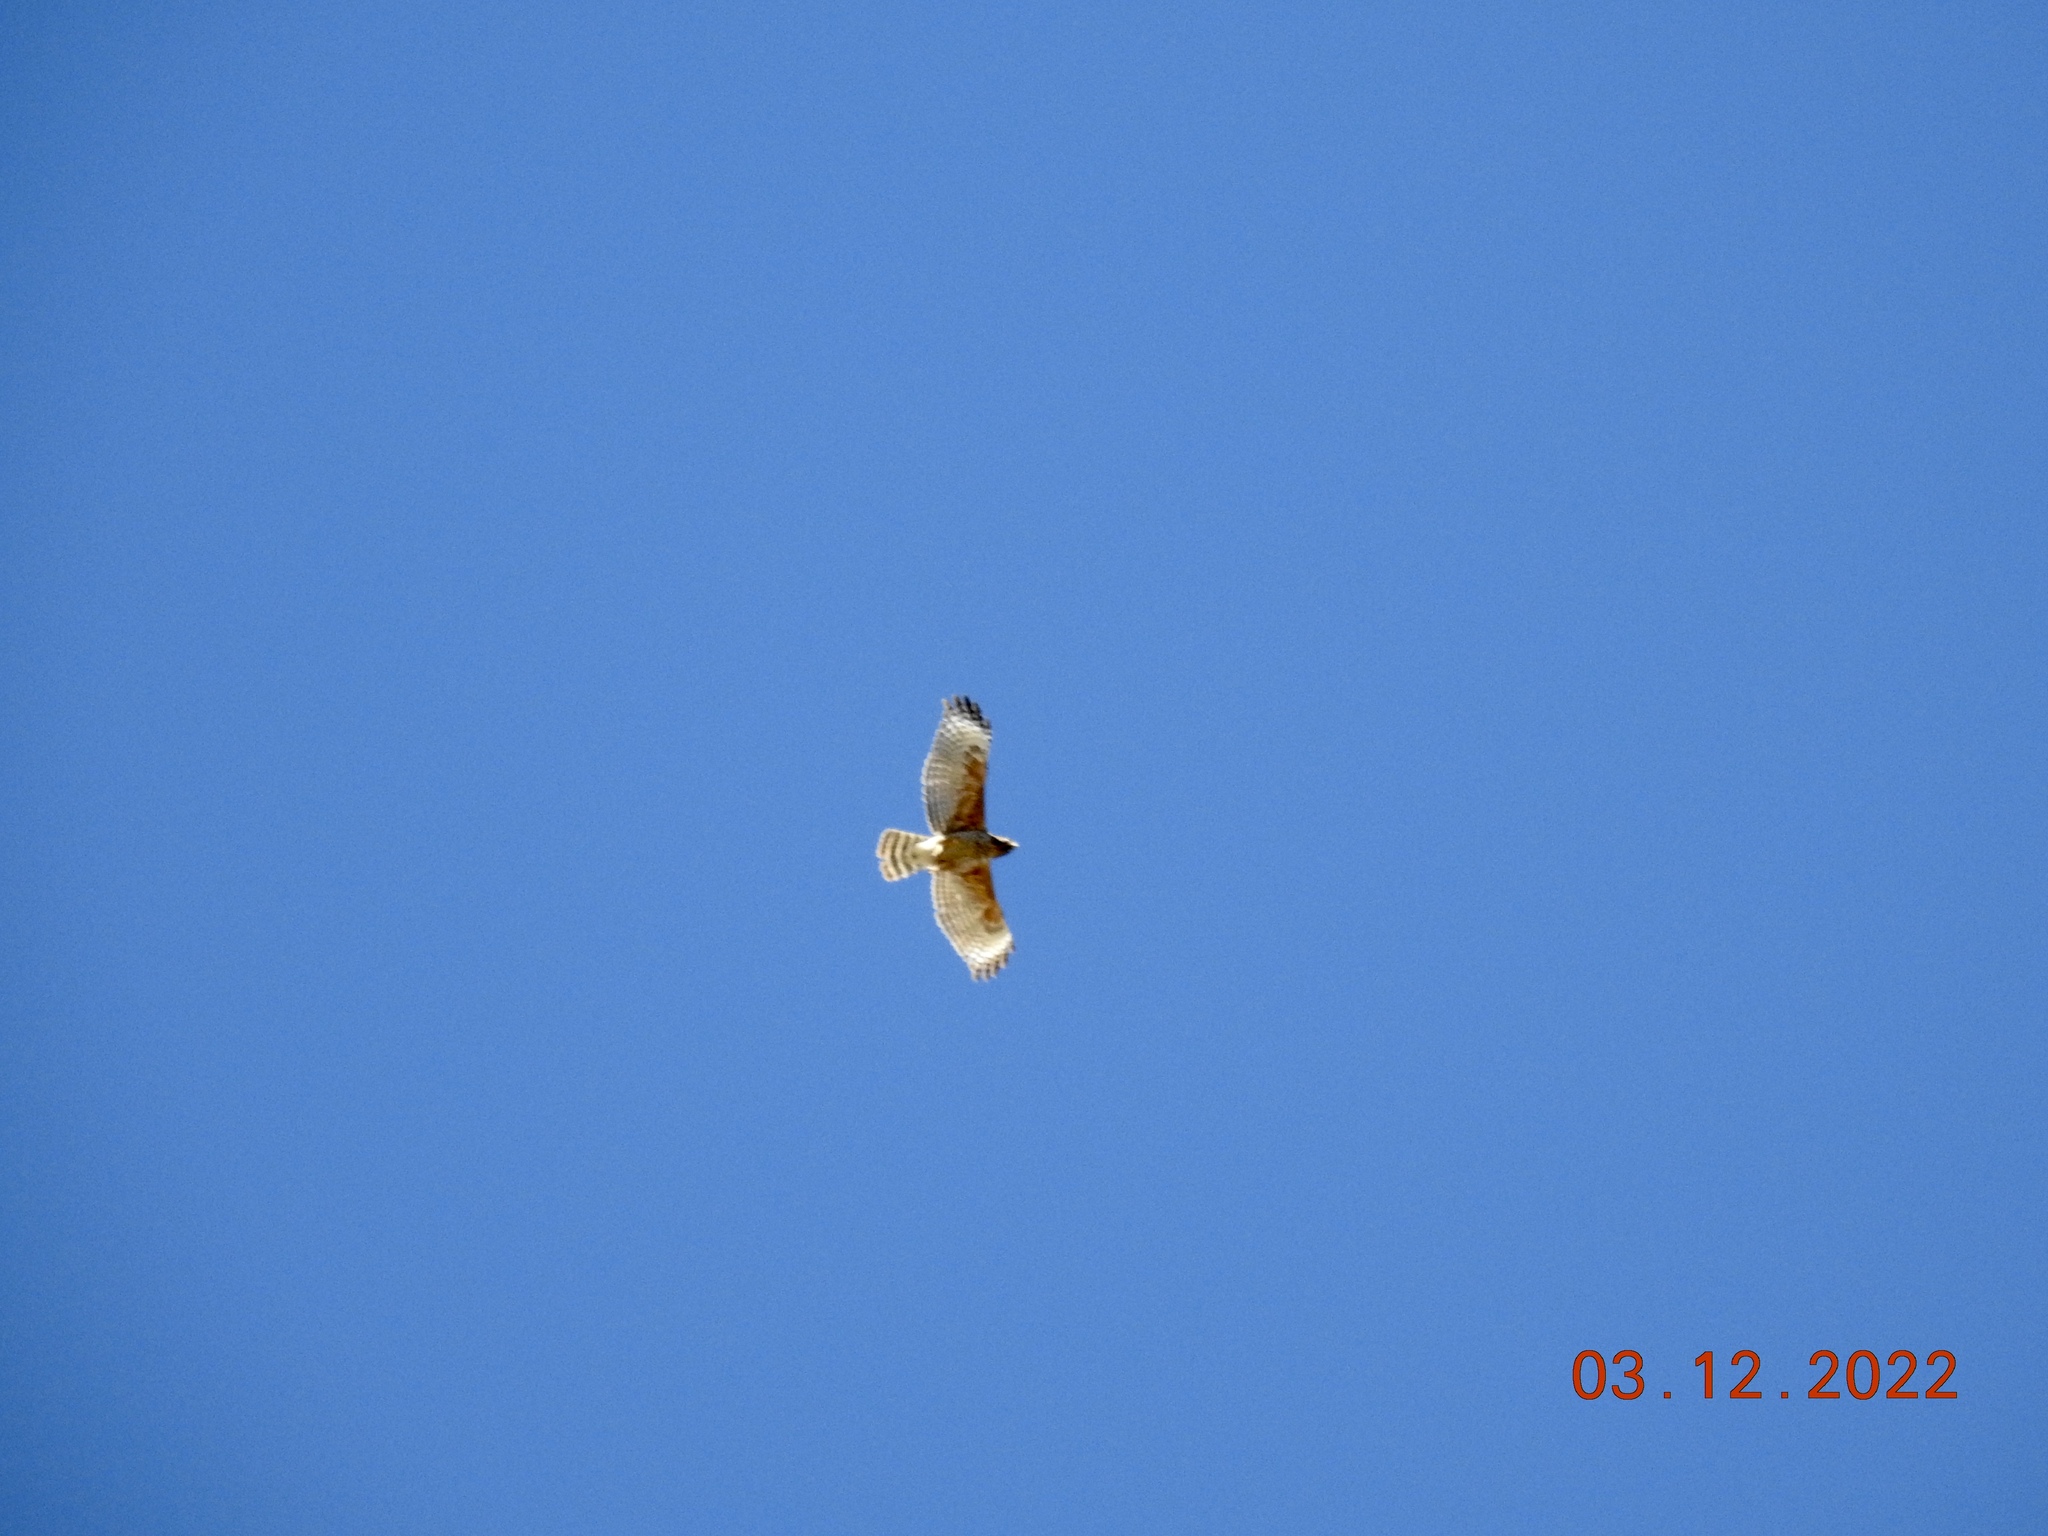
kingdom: Animalia
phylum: Chordata
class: Aves
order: Accipitriformes
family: Accipitridae
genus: Buteo
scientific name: Buteo lineatus
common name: Red-shouldered hawk
